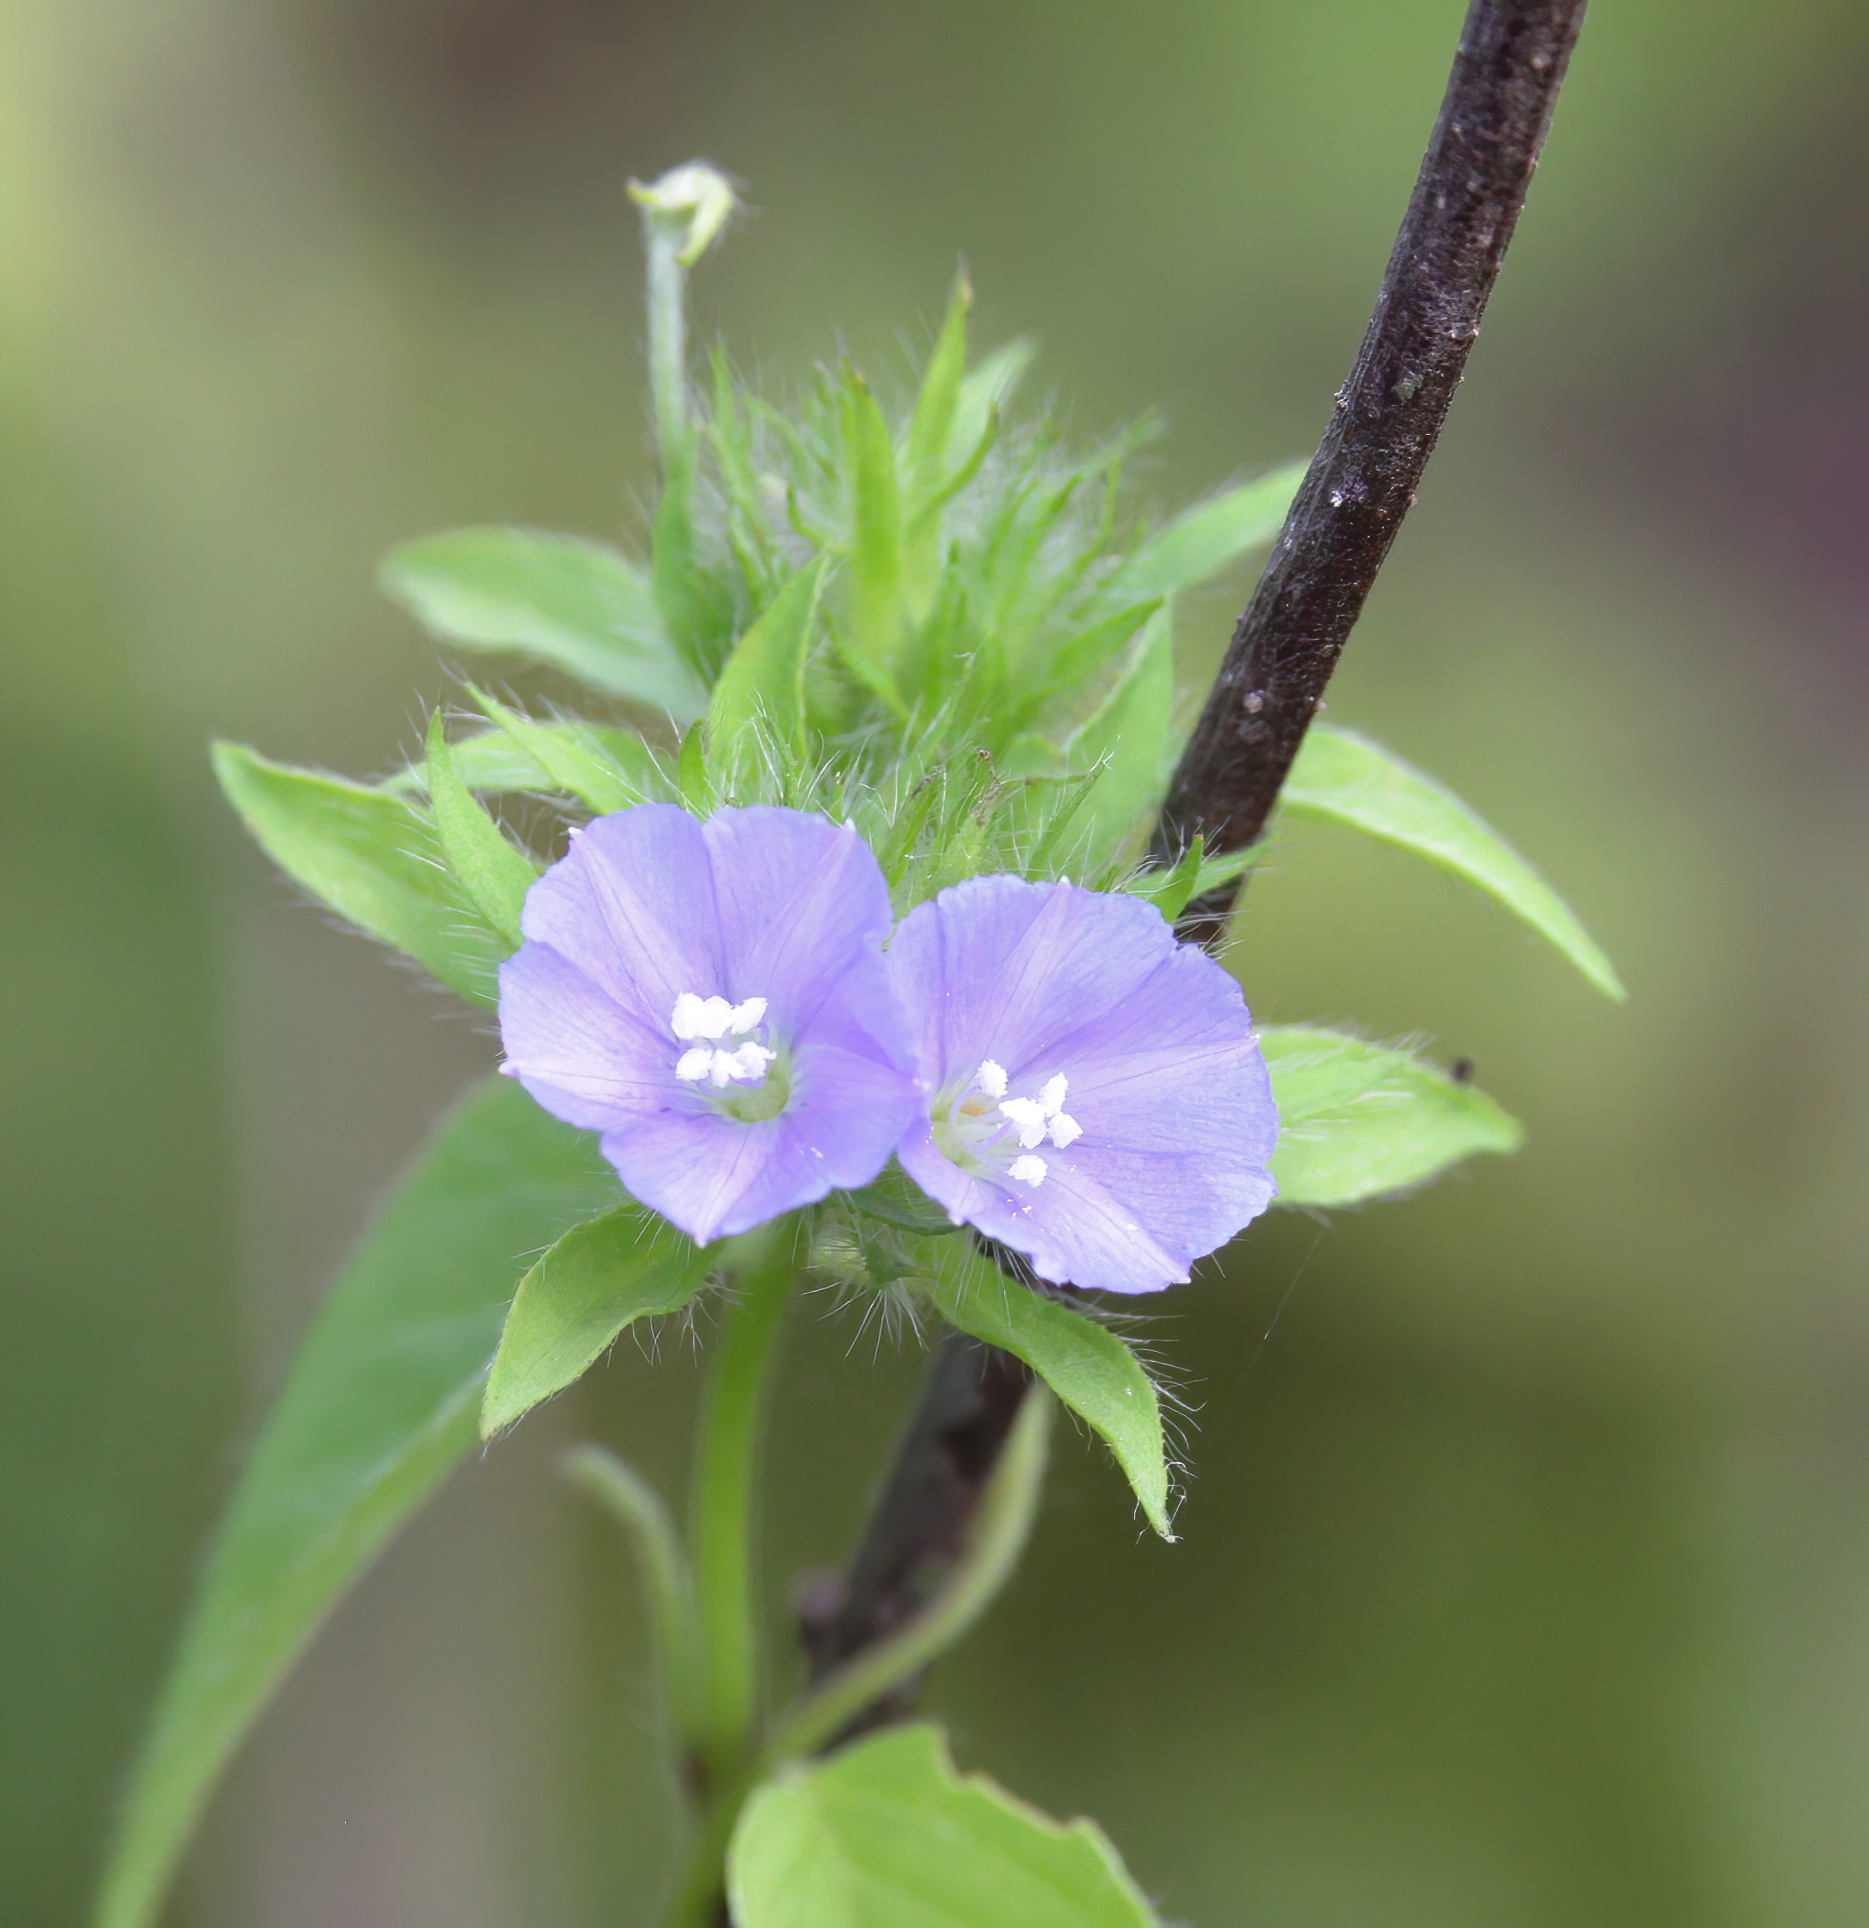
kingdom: Plantae
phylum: Tracheophyta
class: Magnoliopsida
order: Solanales
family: Convolvulaceae
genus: Jacquemontia
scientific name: Jacquemontia tamnifolia
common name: Hairy clustervine
